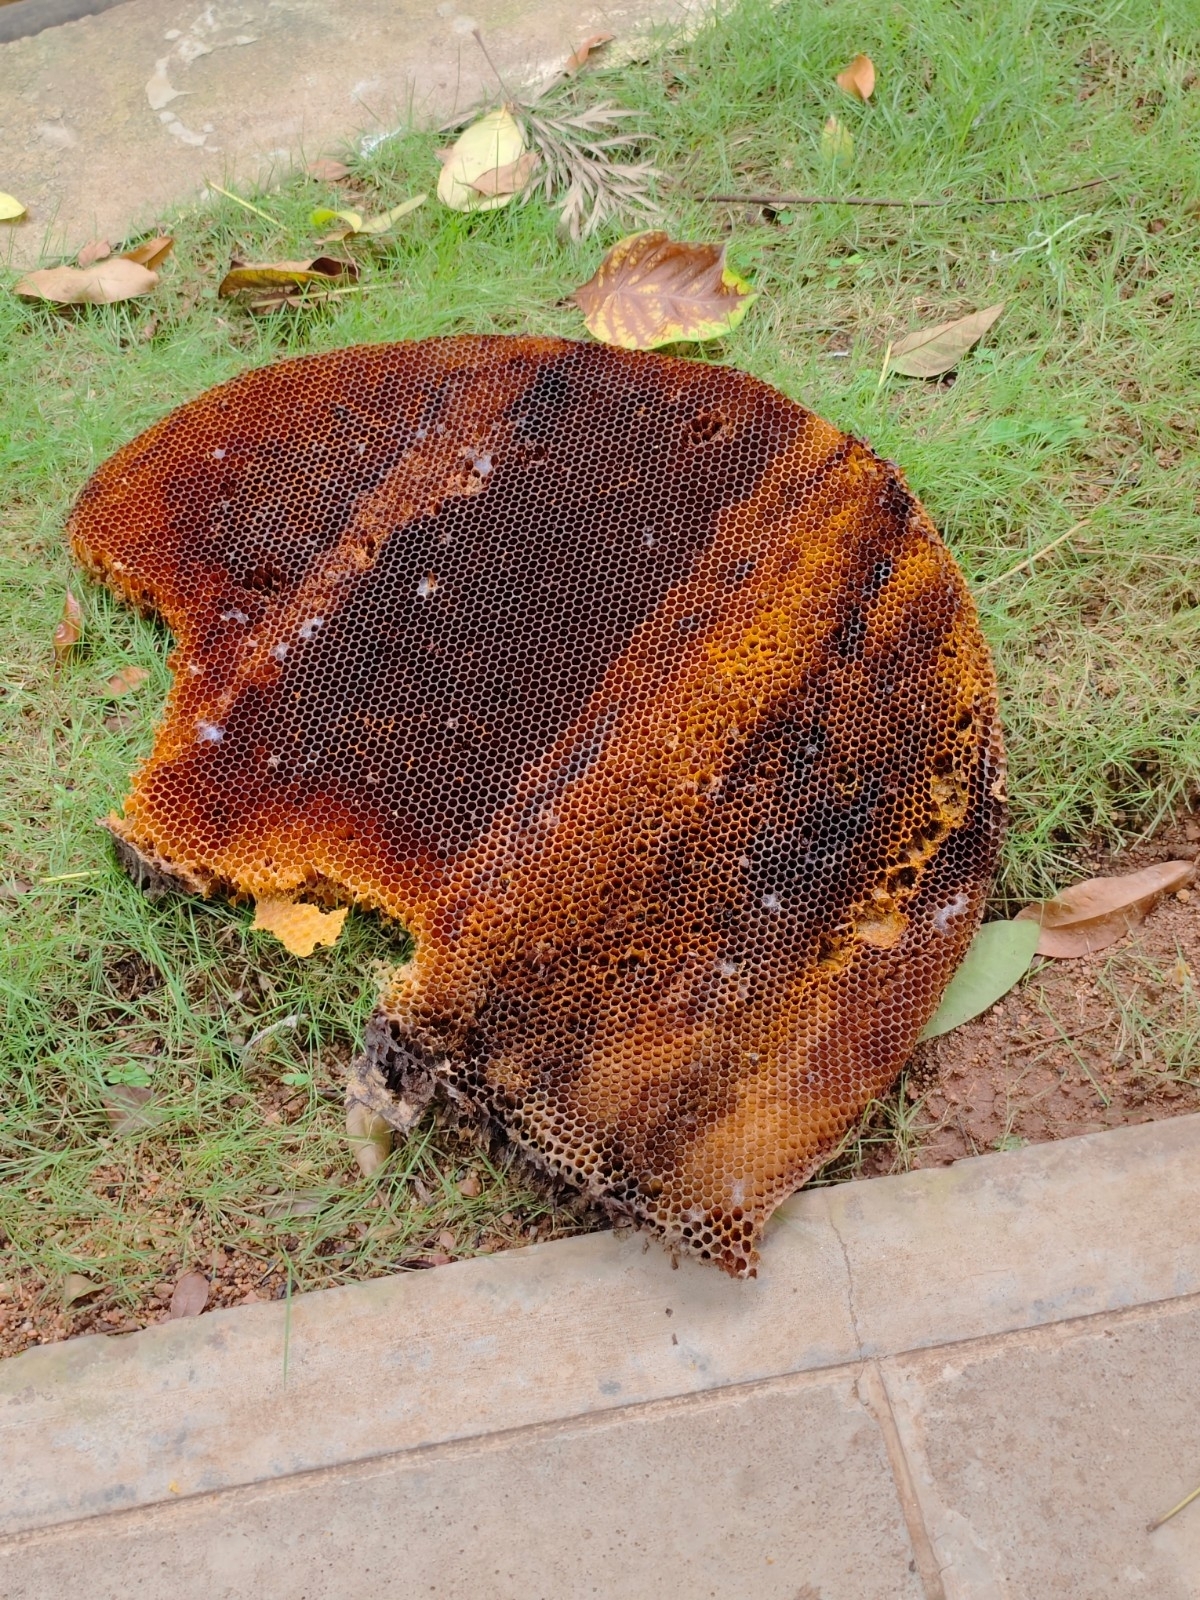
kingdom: Animalia
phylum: Arthropoda
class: Insecta
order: Hymenoptera
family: Apidae
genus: Apis
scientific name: Apis dorsata
